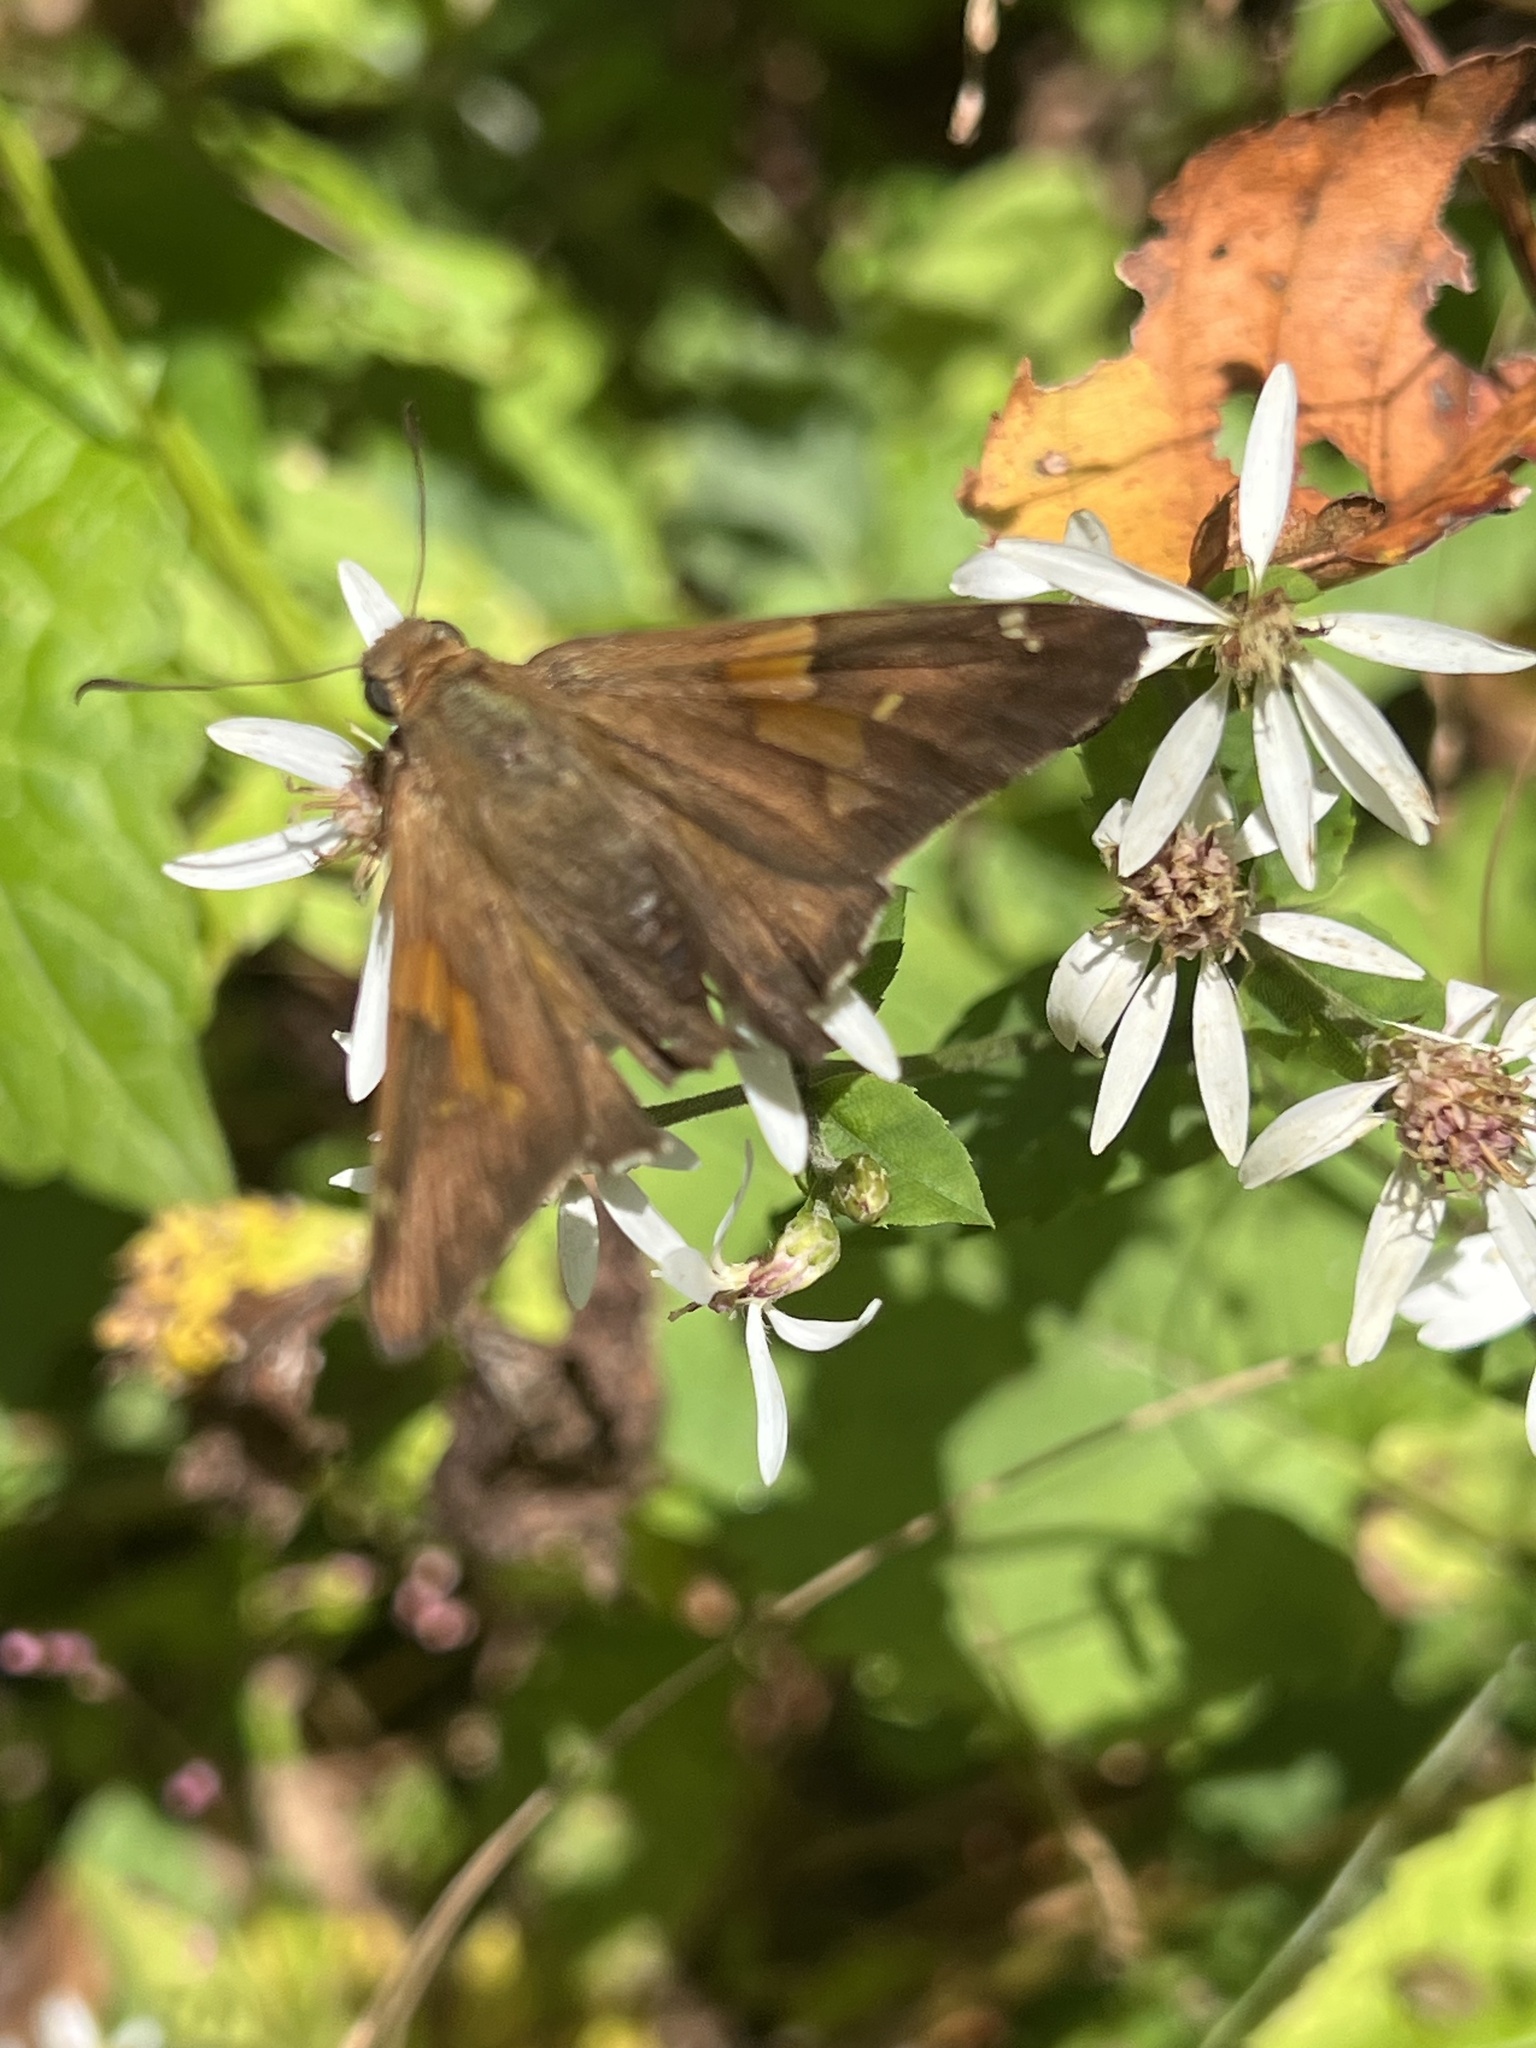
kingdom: Animalia
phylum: Arthropoda
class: Insecta
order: Lepidoptera
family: Hesperiidae
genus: Epargyreus
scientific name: Epargyreus clarus
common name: Silver-spotted skipper
